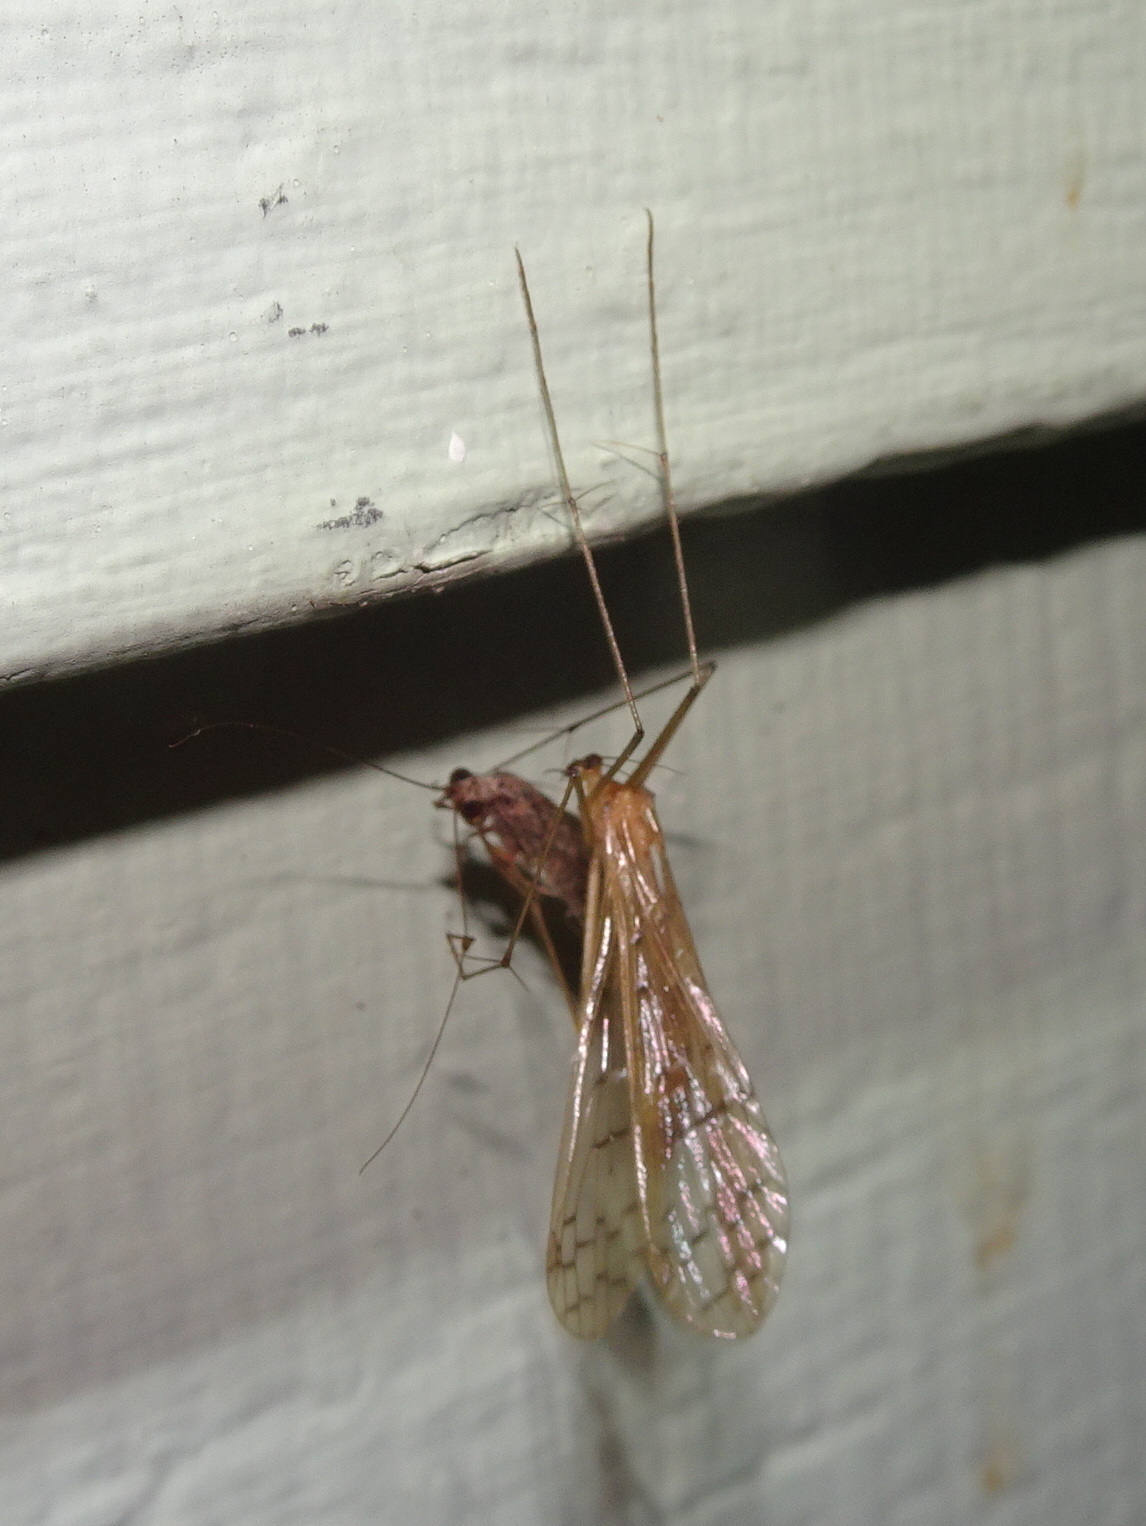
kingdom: Animalia
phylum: Arthropoda
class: Insecta
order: Mecoptera
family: Bittacidae
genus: Bittacus
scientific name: Bittacus strigosus
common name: Thin hangingfly
